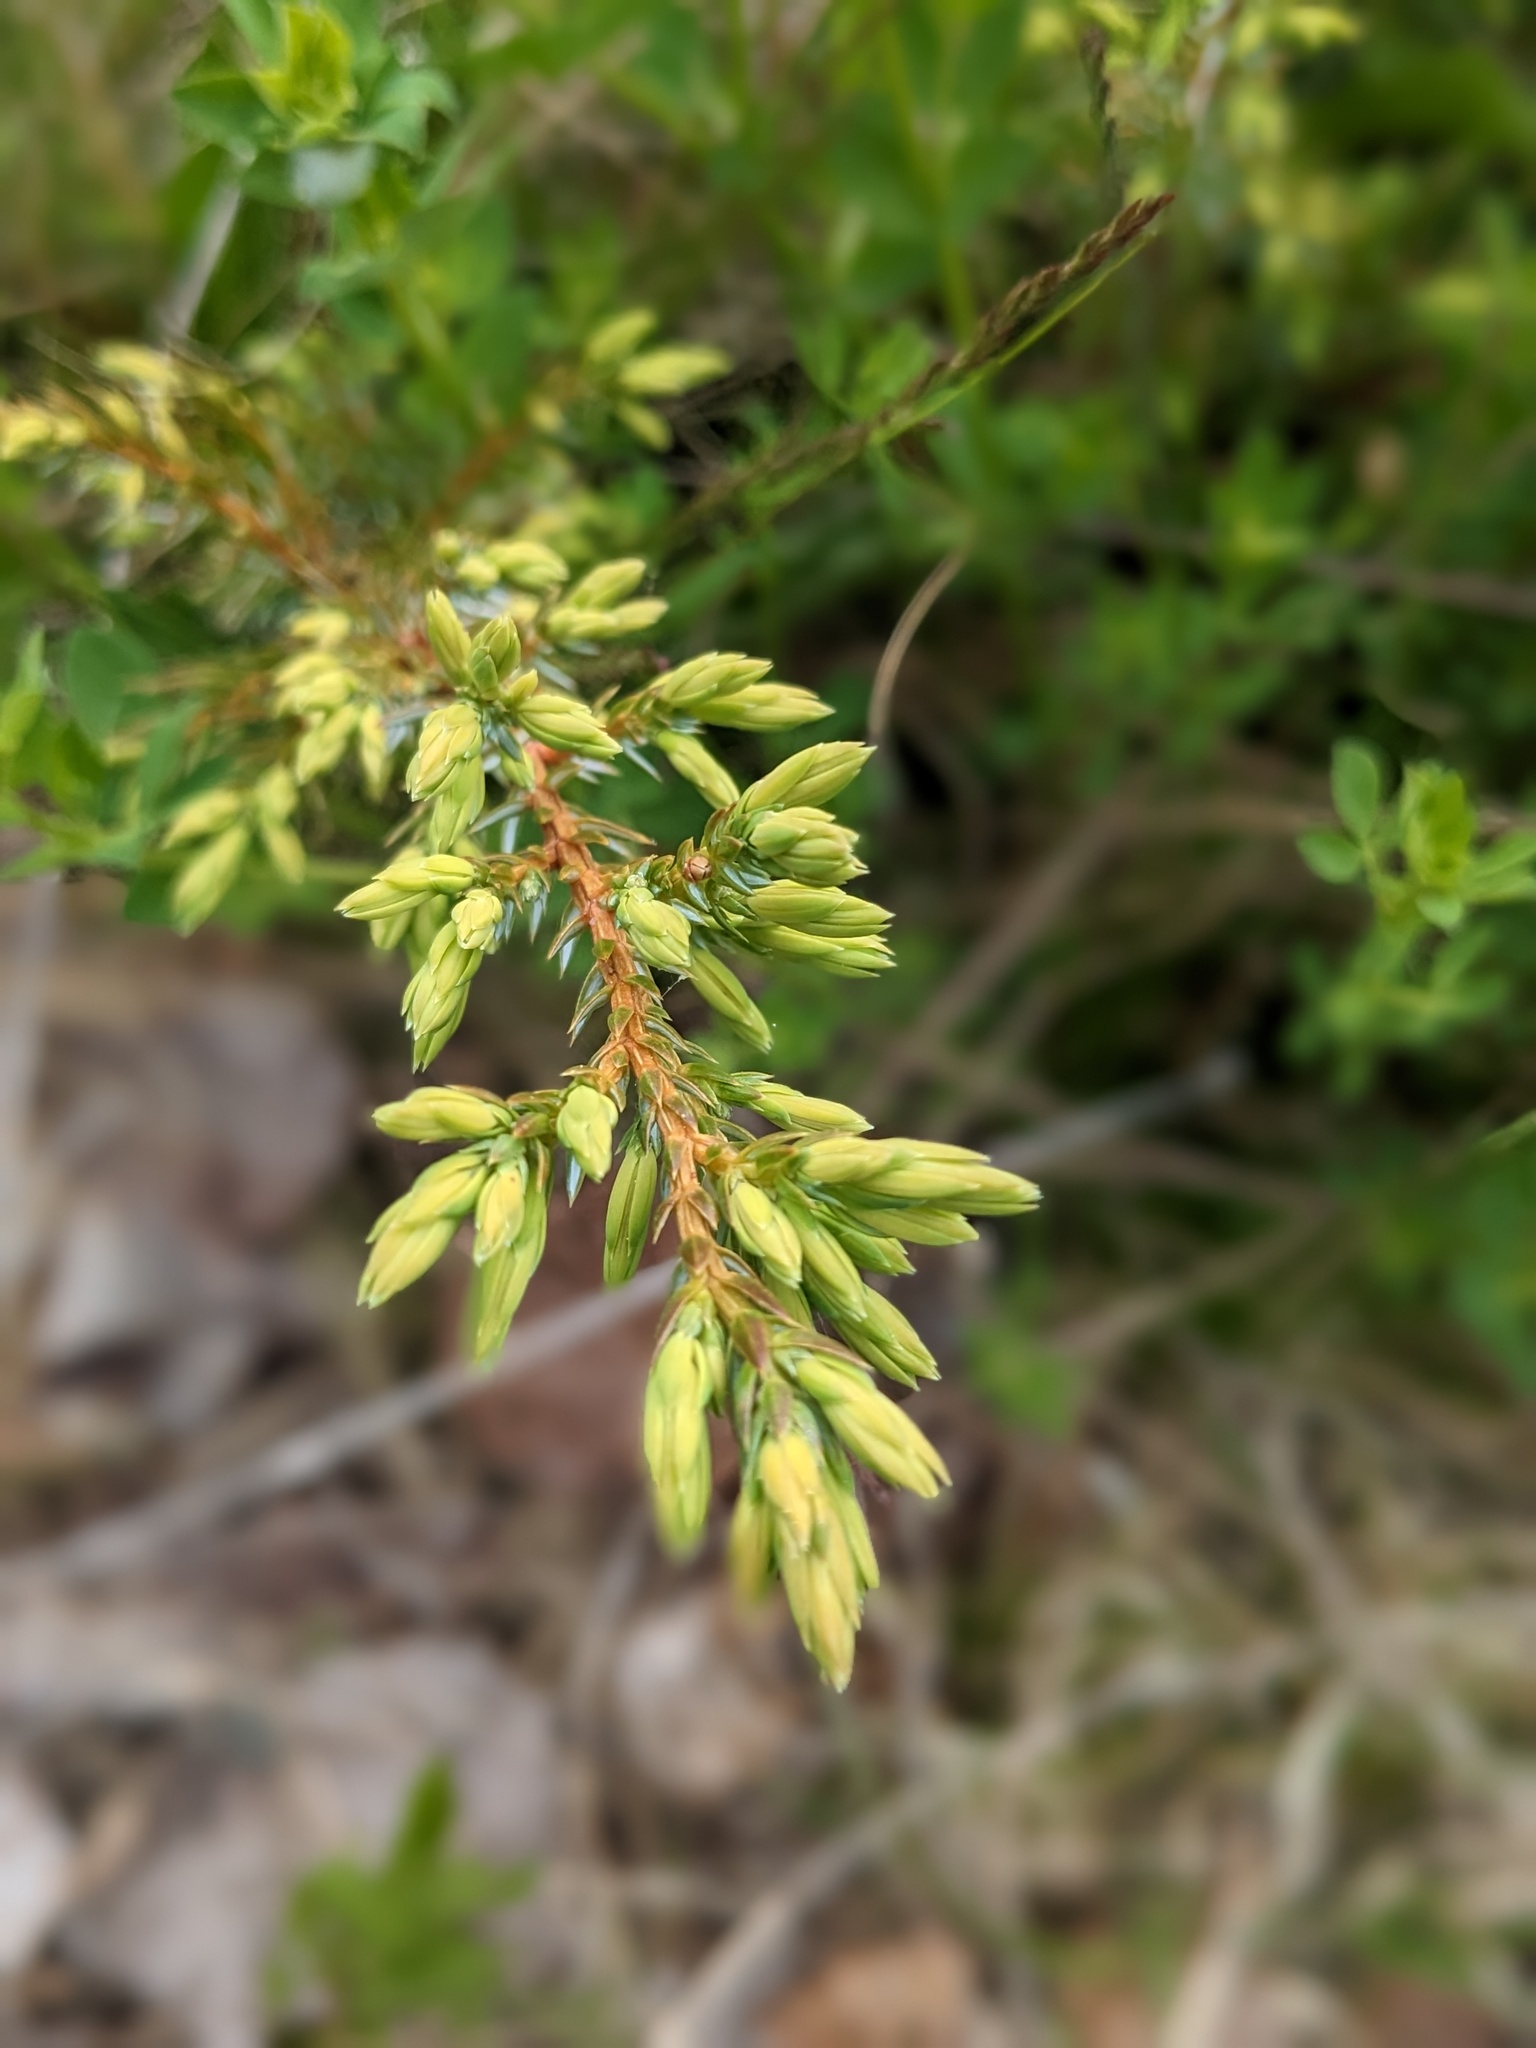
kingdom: Plantae
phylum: Tracheophyta
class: Pinopsida
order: Pinales
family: Cupressaceae
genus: Juniperus
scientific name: Juniperus communis
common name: Common juniper
